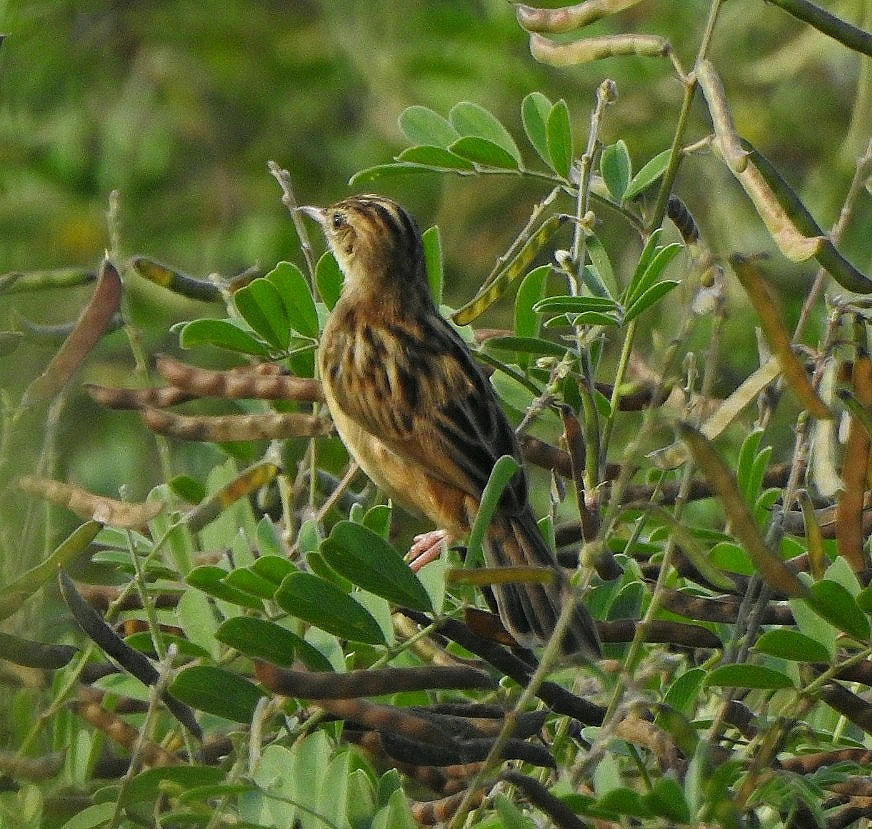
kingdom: Animalia
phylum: Chordata
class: Aves
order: Passeriformes
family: Cisticolidae
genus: Cisticola
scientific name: Cisticola juncidis
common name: Zitting cisticola
